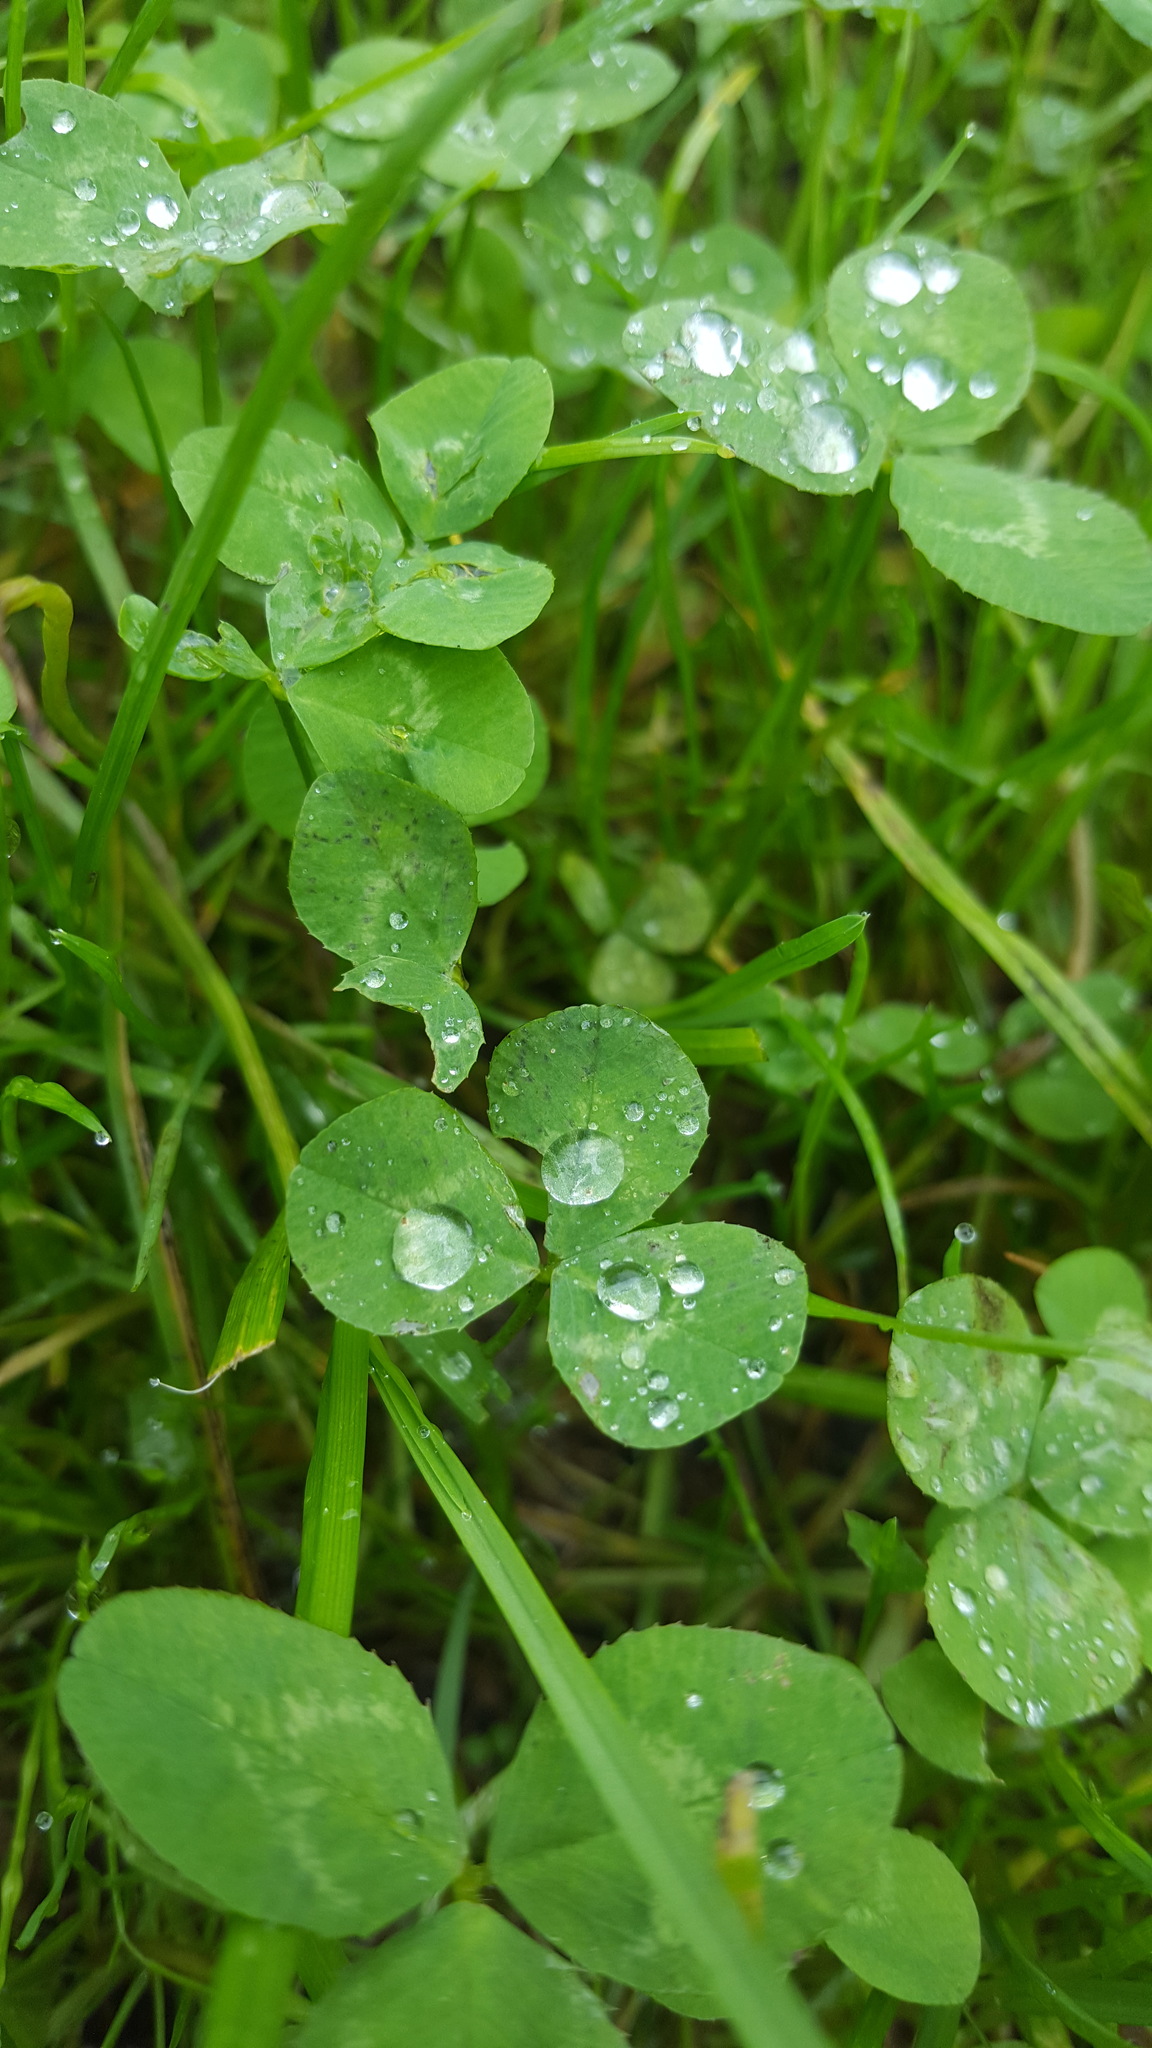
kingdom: Plantae
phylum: Tracheophyta
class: Magnoliopsida
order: Fabales
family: Fabaceae
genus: Trifolium
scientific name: Trifolium repens
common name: White clover
